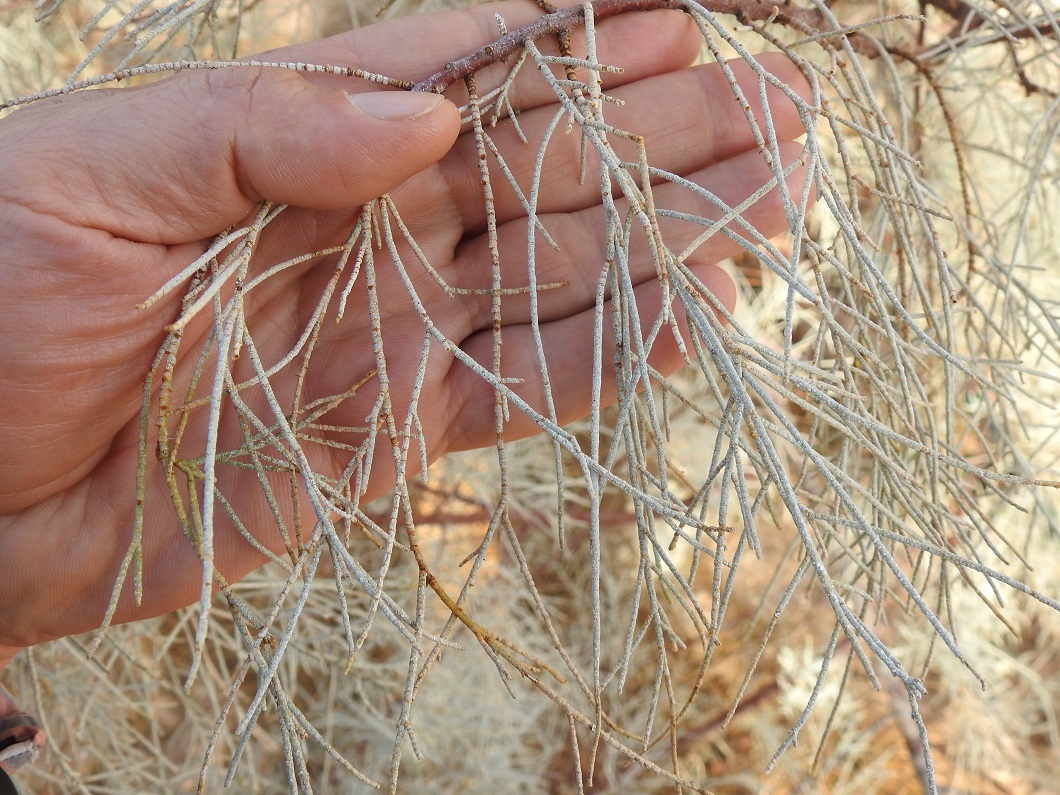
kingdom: Plantae
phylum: Tracheophyta
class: Magnoliopsida
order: Caryophyllales
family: Tamaricaceae
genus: Tamarix
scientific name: Tamarix aphylla
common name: Athel tamarisk
